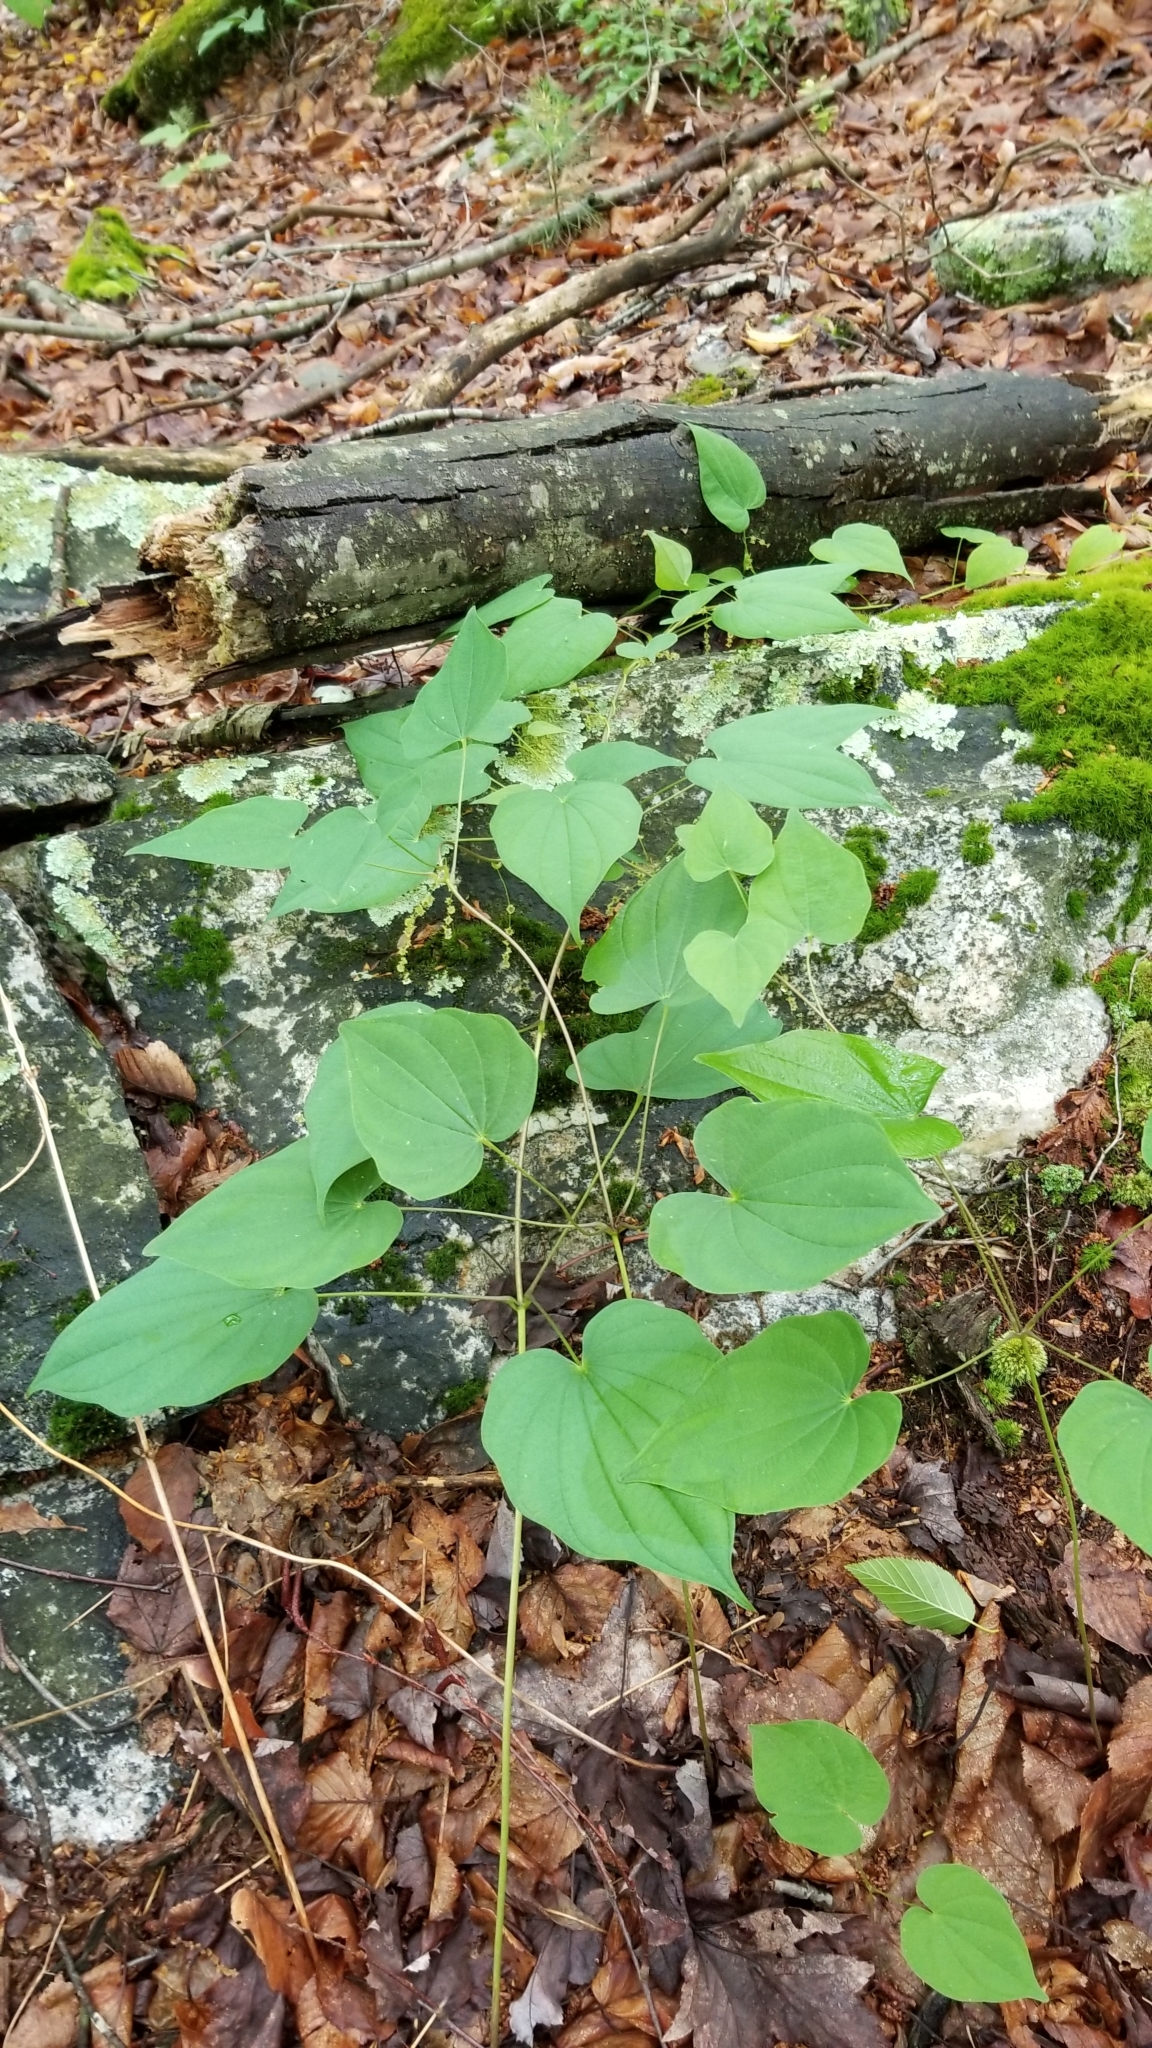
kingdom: Plantae
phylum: Tracheophyta
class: Liliopsida
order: Dioscoreales
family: Dioscoreaceae
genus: Dioscorea
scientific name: Dioscorea villosa
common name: Wild yam
